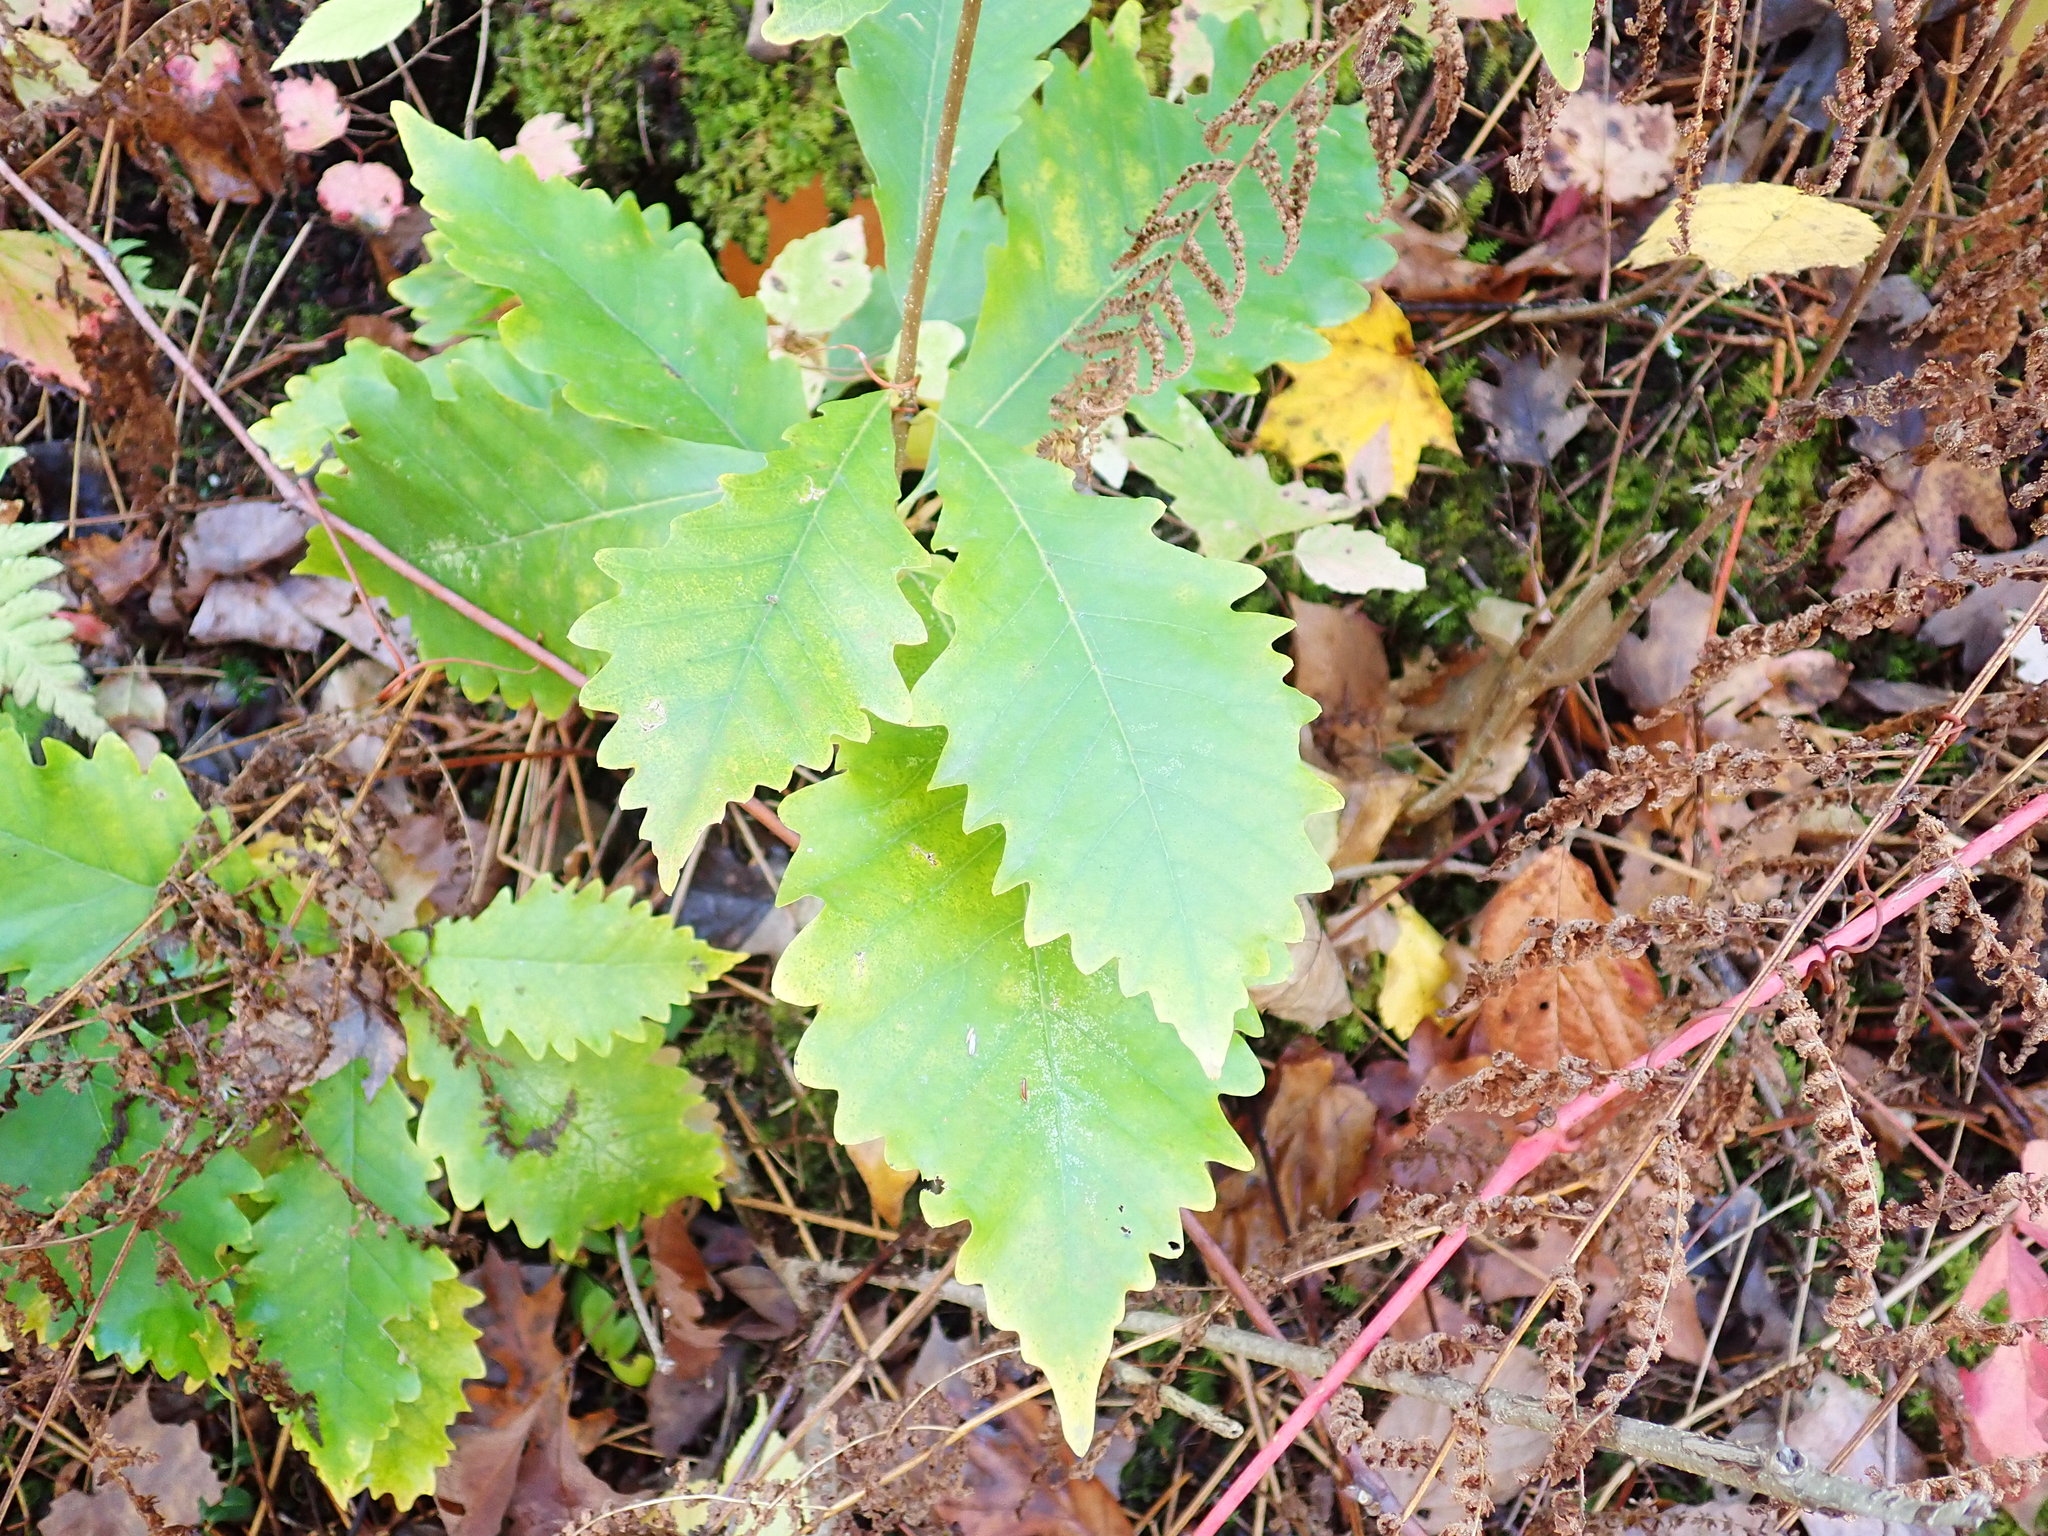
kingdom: Plantae
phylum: Tracheophyta
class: Magnoliopsida
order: Fagales
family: Fagaceae
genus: Quercus
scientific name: Quercus montana
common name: Chestnut oak
